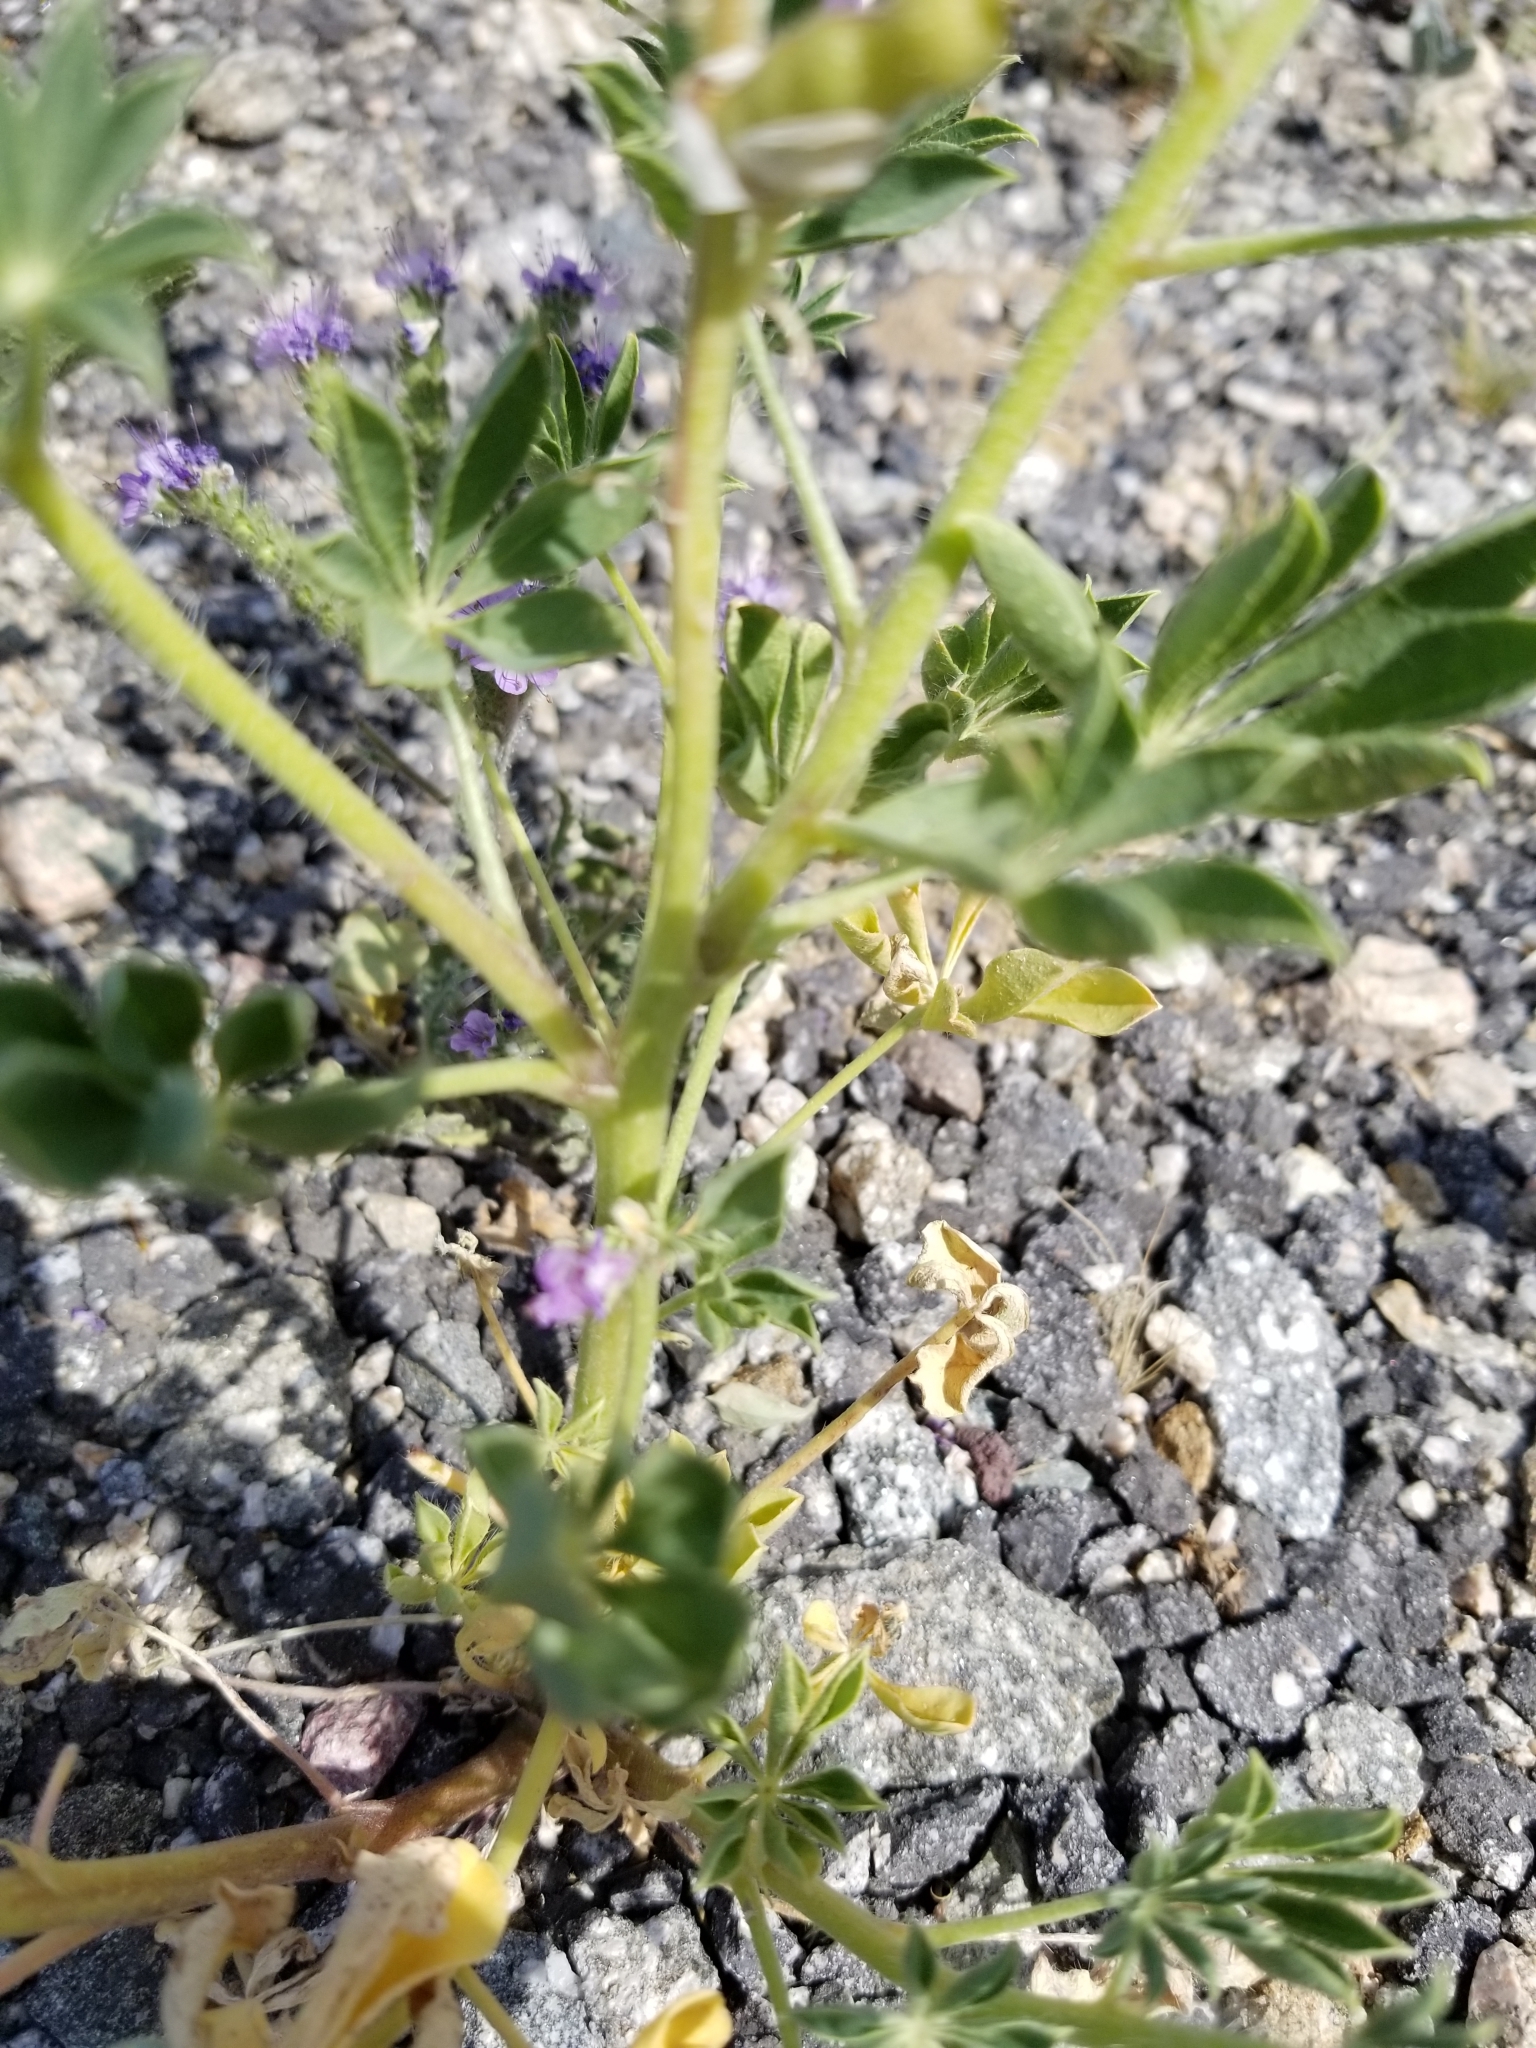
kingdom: Plantae
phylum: Tracheophyta
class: Magnoliopsida
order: Fabales
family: Fabaceae
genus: Lupinus
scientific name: Lupinus arizonicus
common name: Arizona lupine
